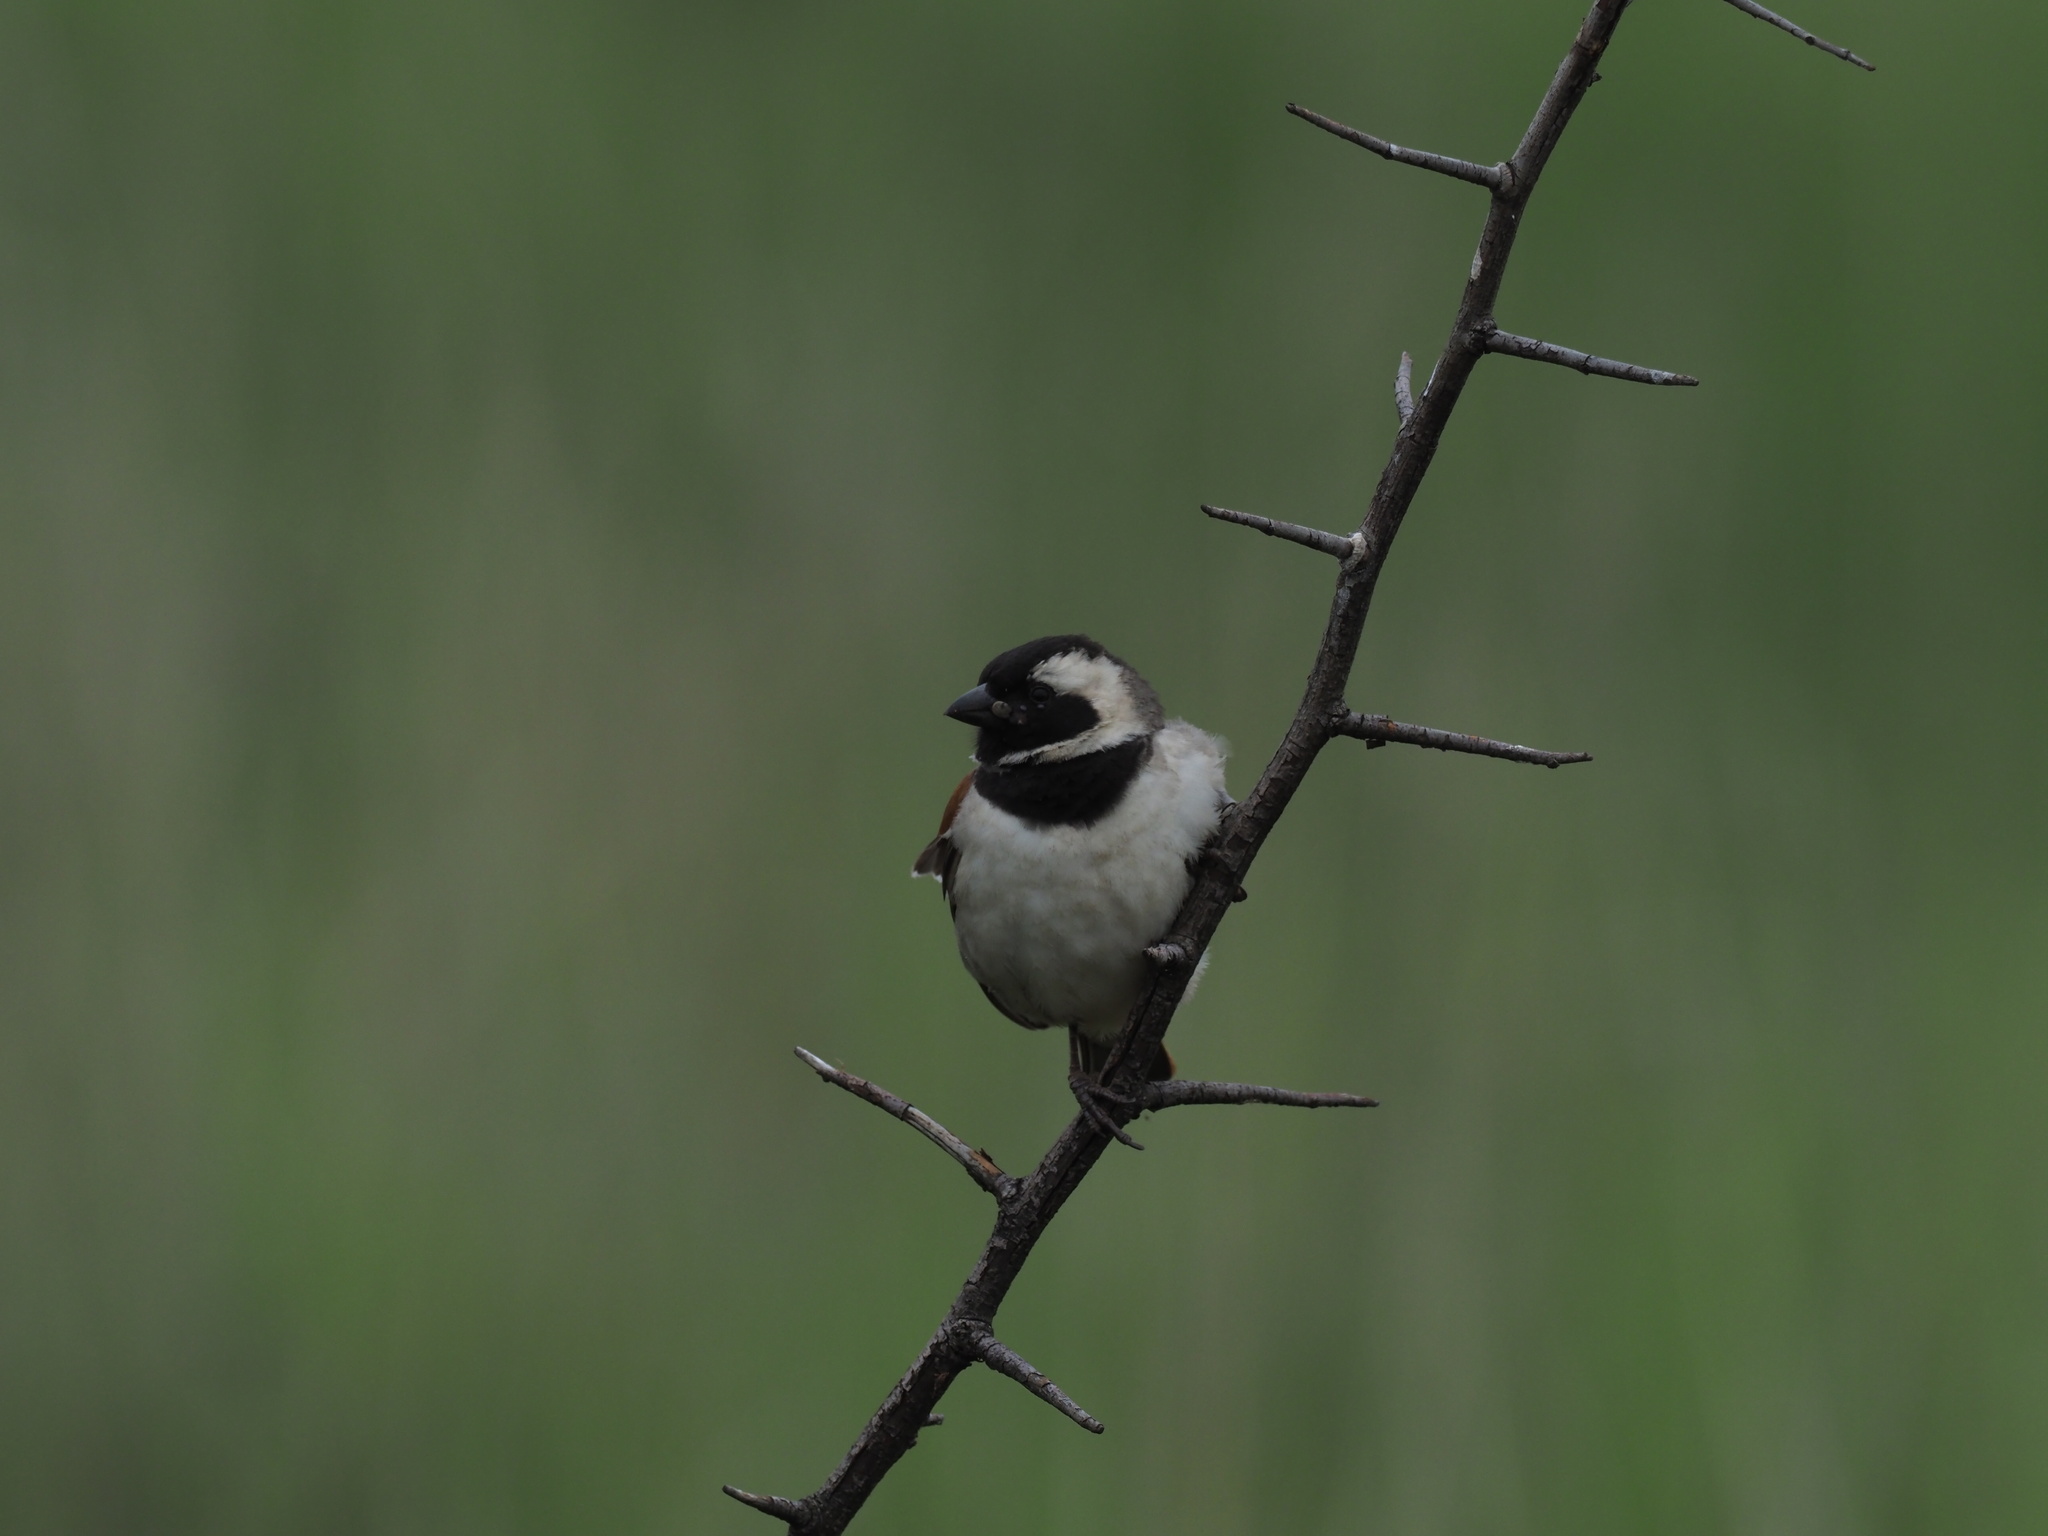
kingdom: Animalia
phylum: Chordata
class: Aves
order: Passeriformes
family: Passeridae
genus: Passer
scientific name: Passer melanurus
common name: Cape sparrow
